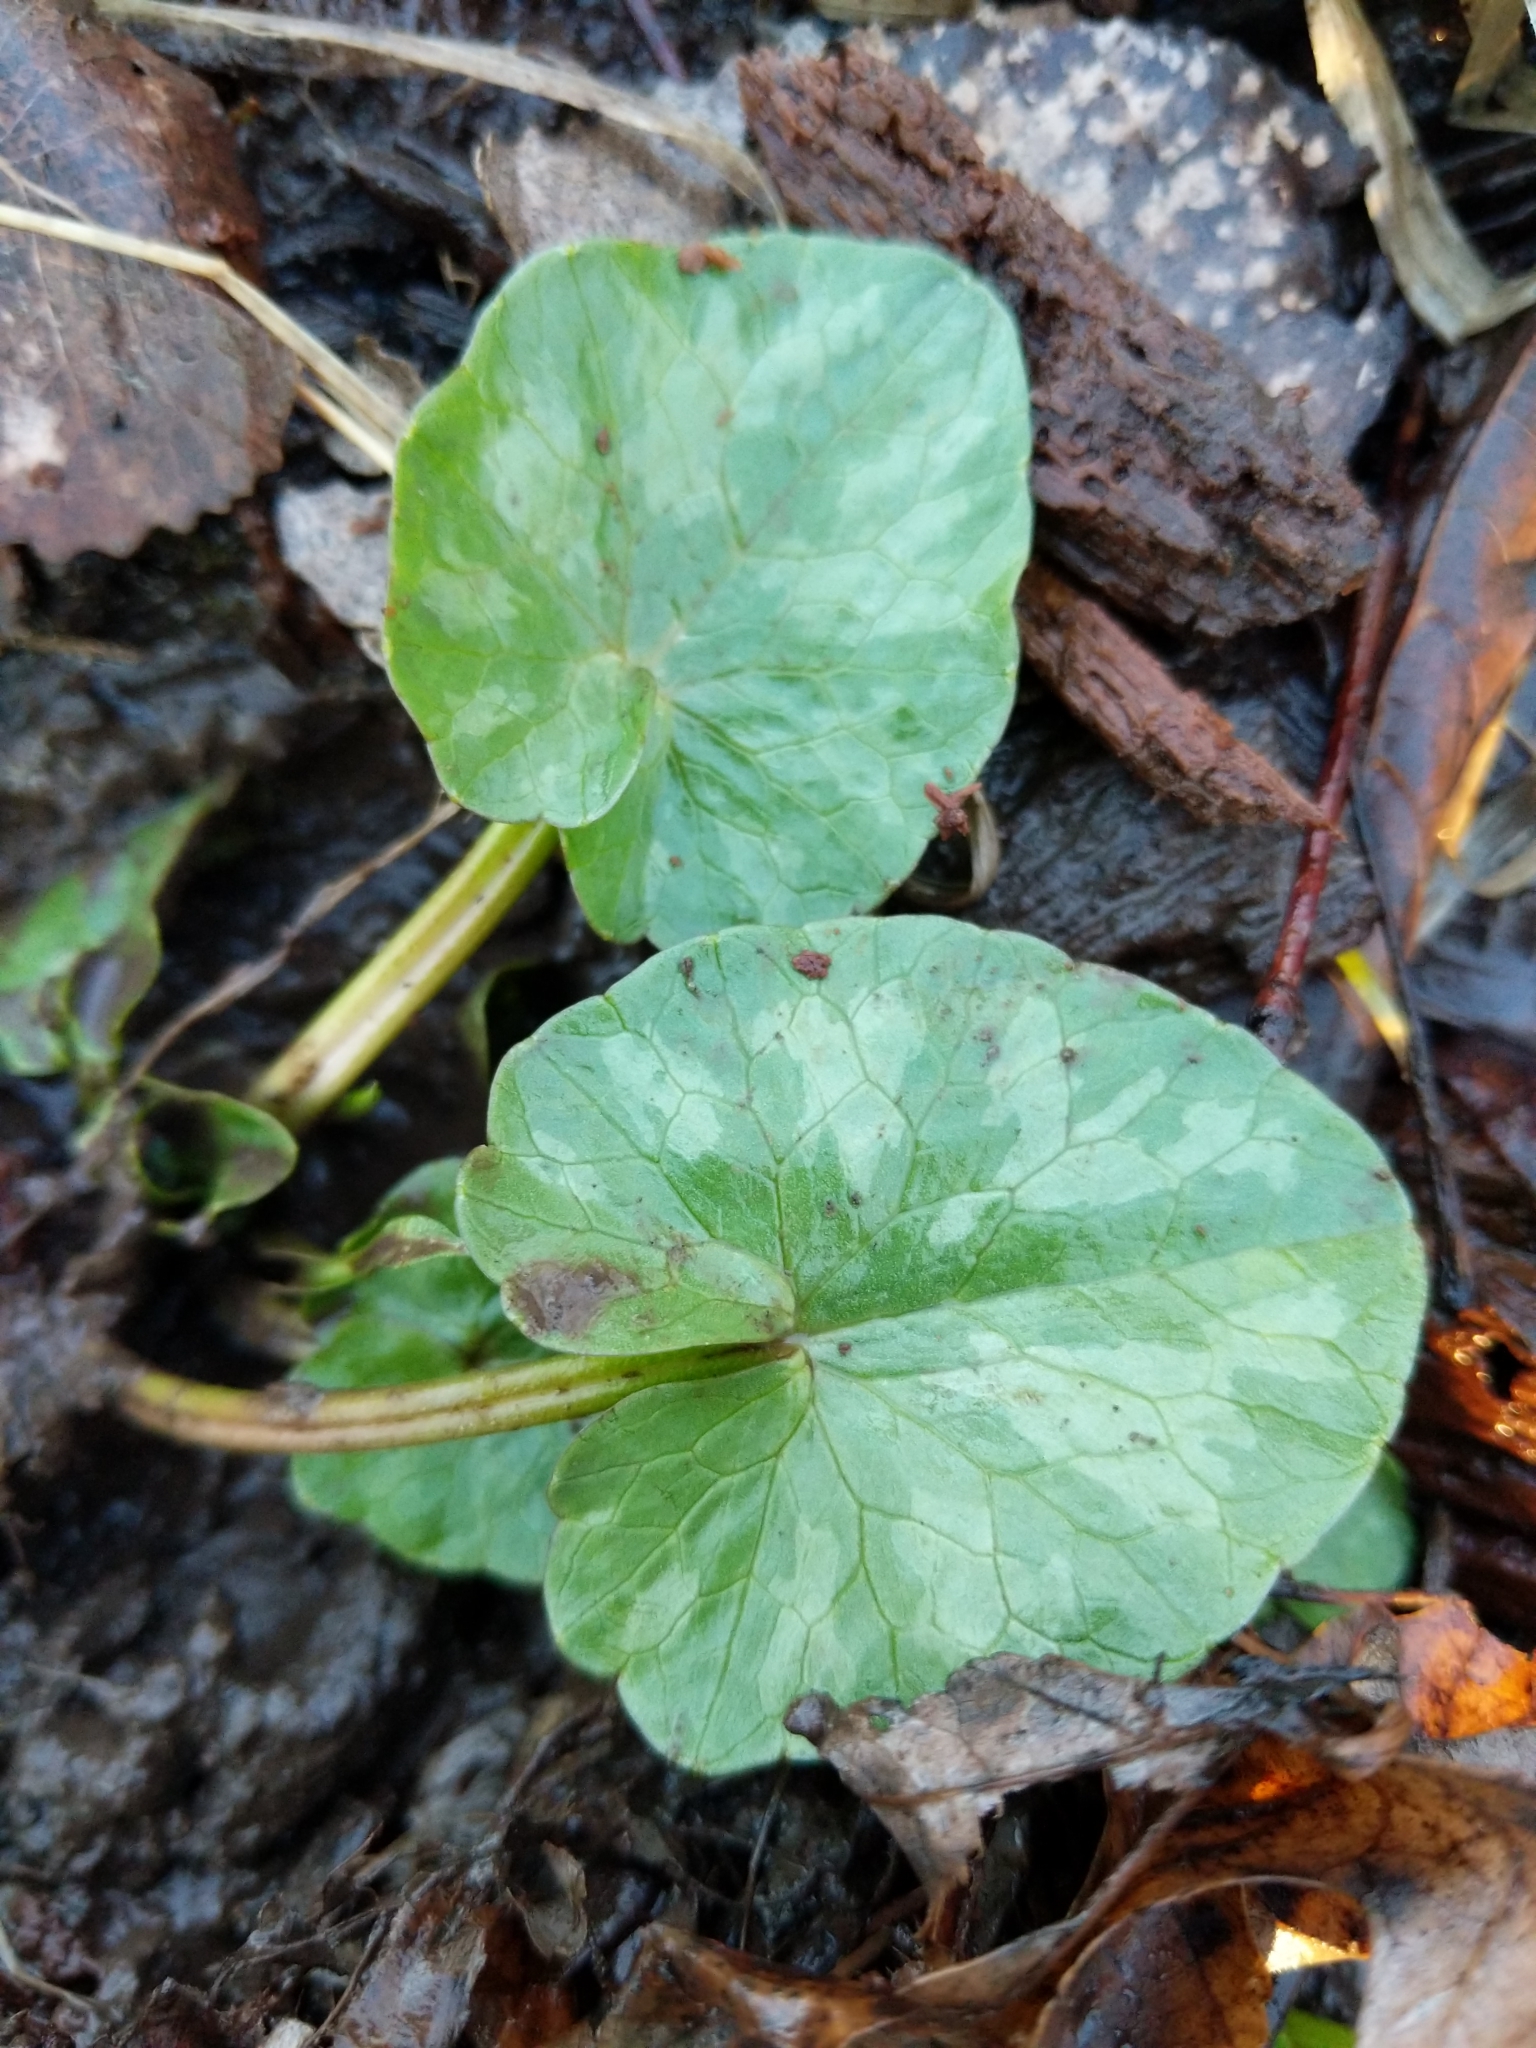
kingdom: Plantae
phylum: Tracheophyta
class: Magnoliopsida
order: Ranunculales
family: Ranunculaceae
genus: Ficaria
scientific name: Ficaria verna
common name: Lesser celandine
